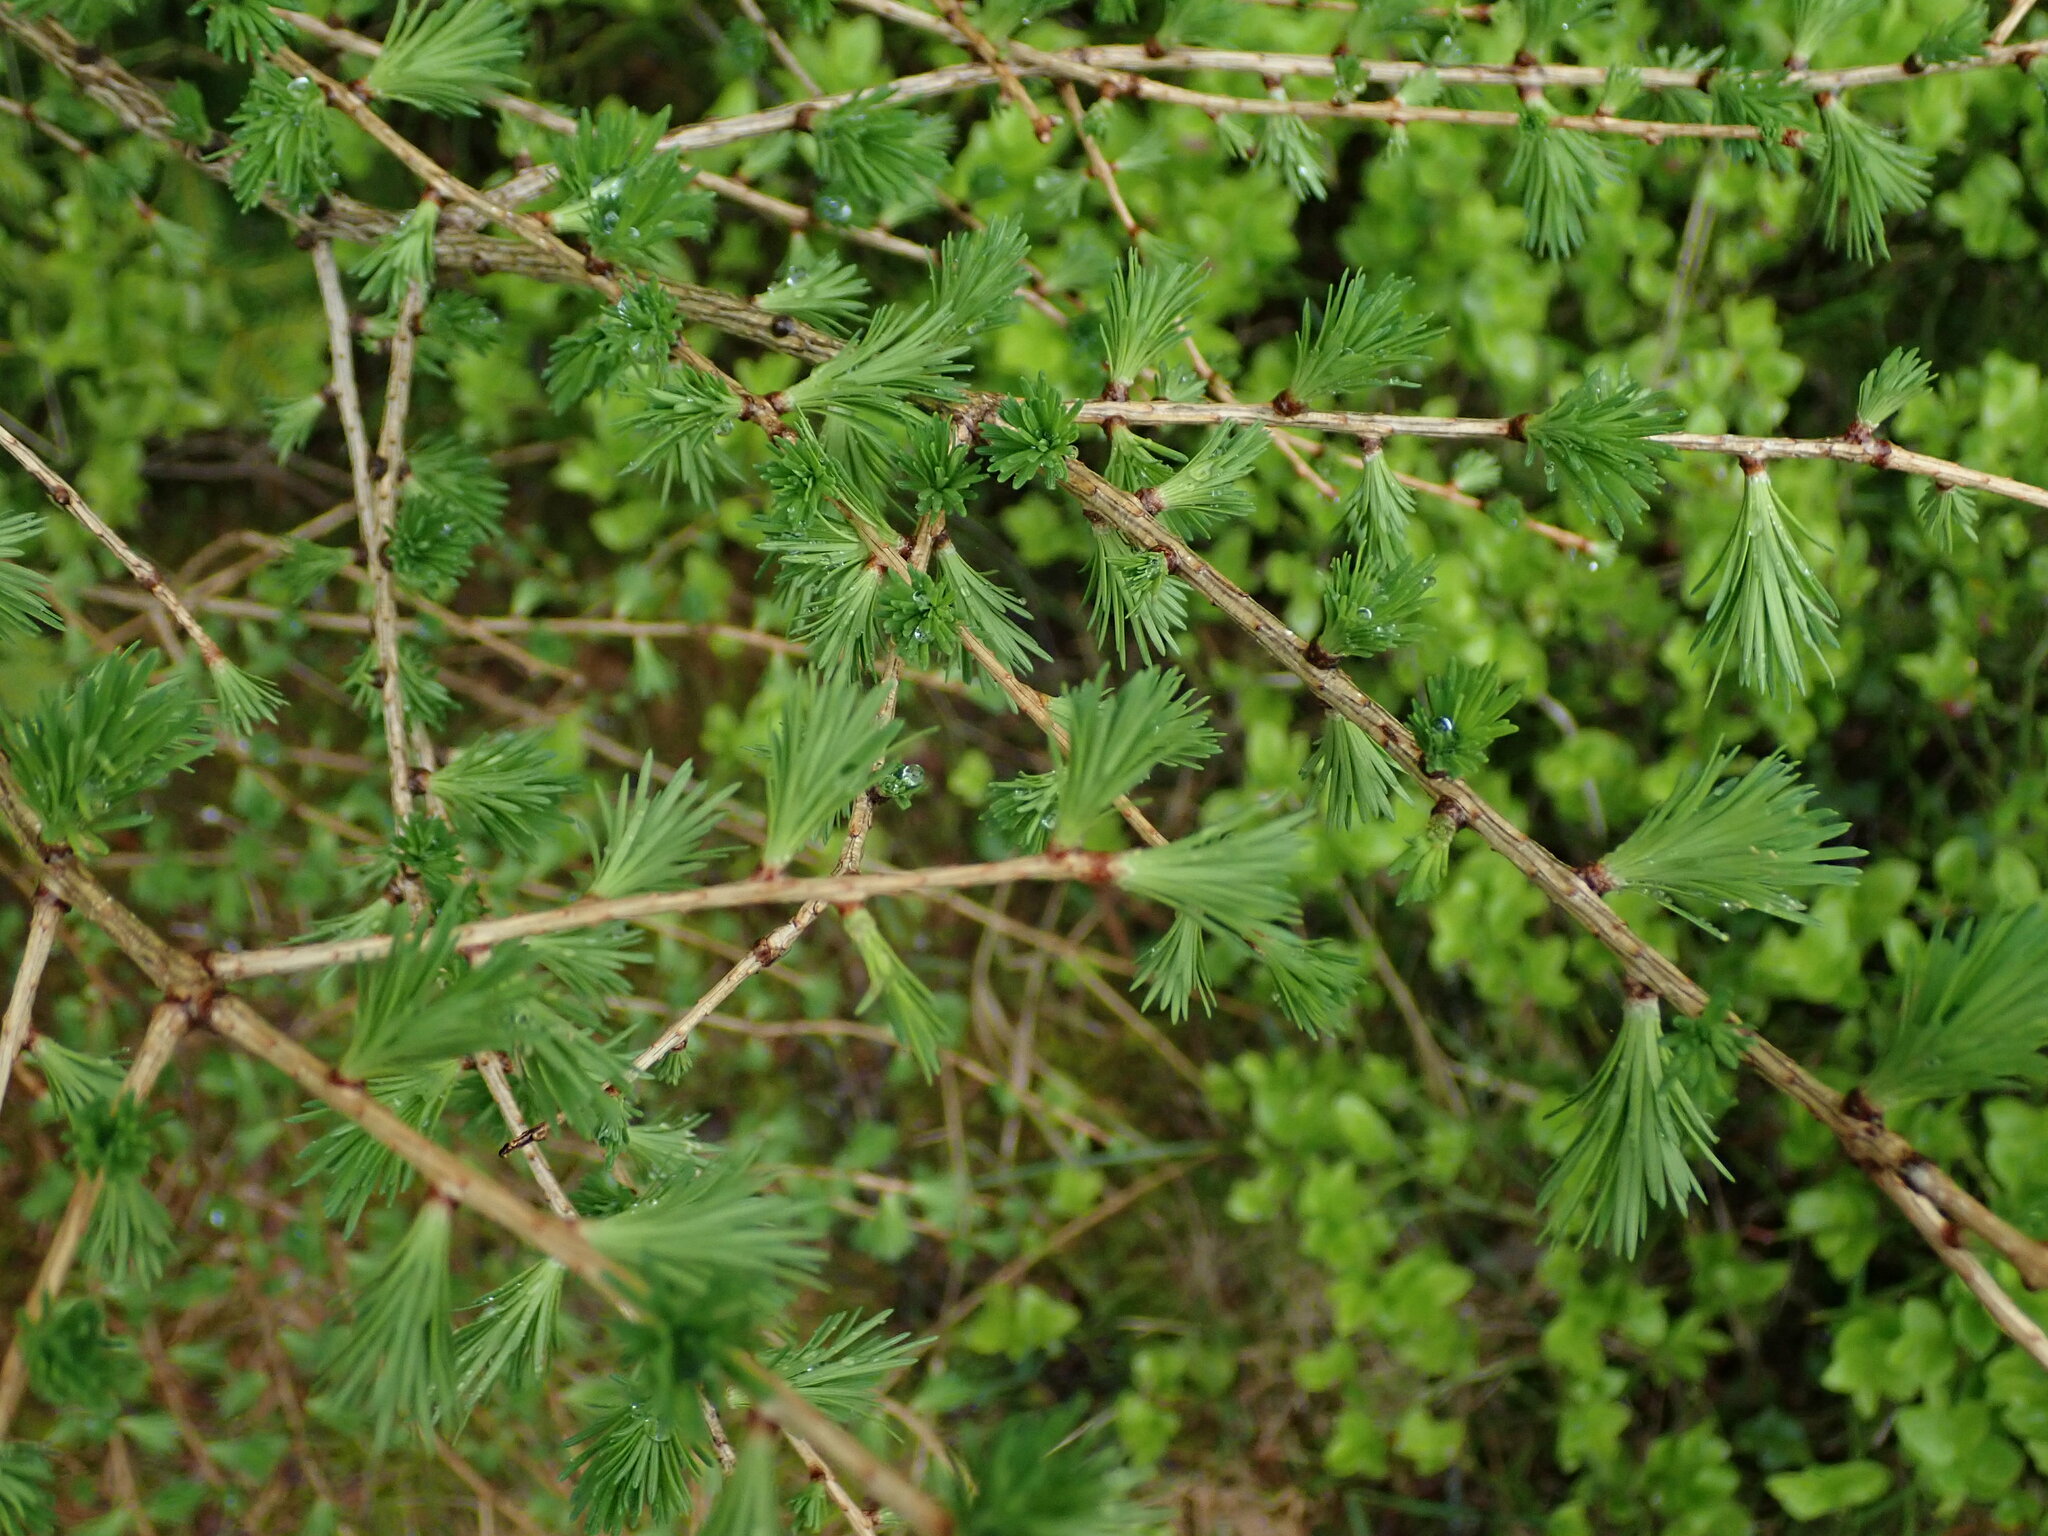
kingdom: Plantae
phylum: Tracheophyta
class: Pinopsida
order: Pinales
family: Pinaceae
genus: Larix
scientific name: Larix decidua
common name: European larch
